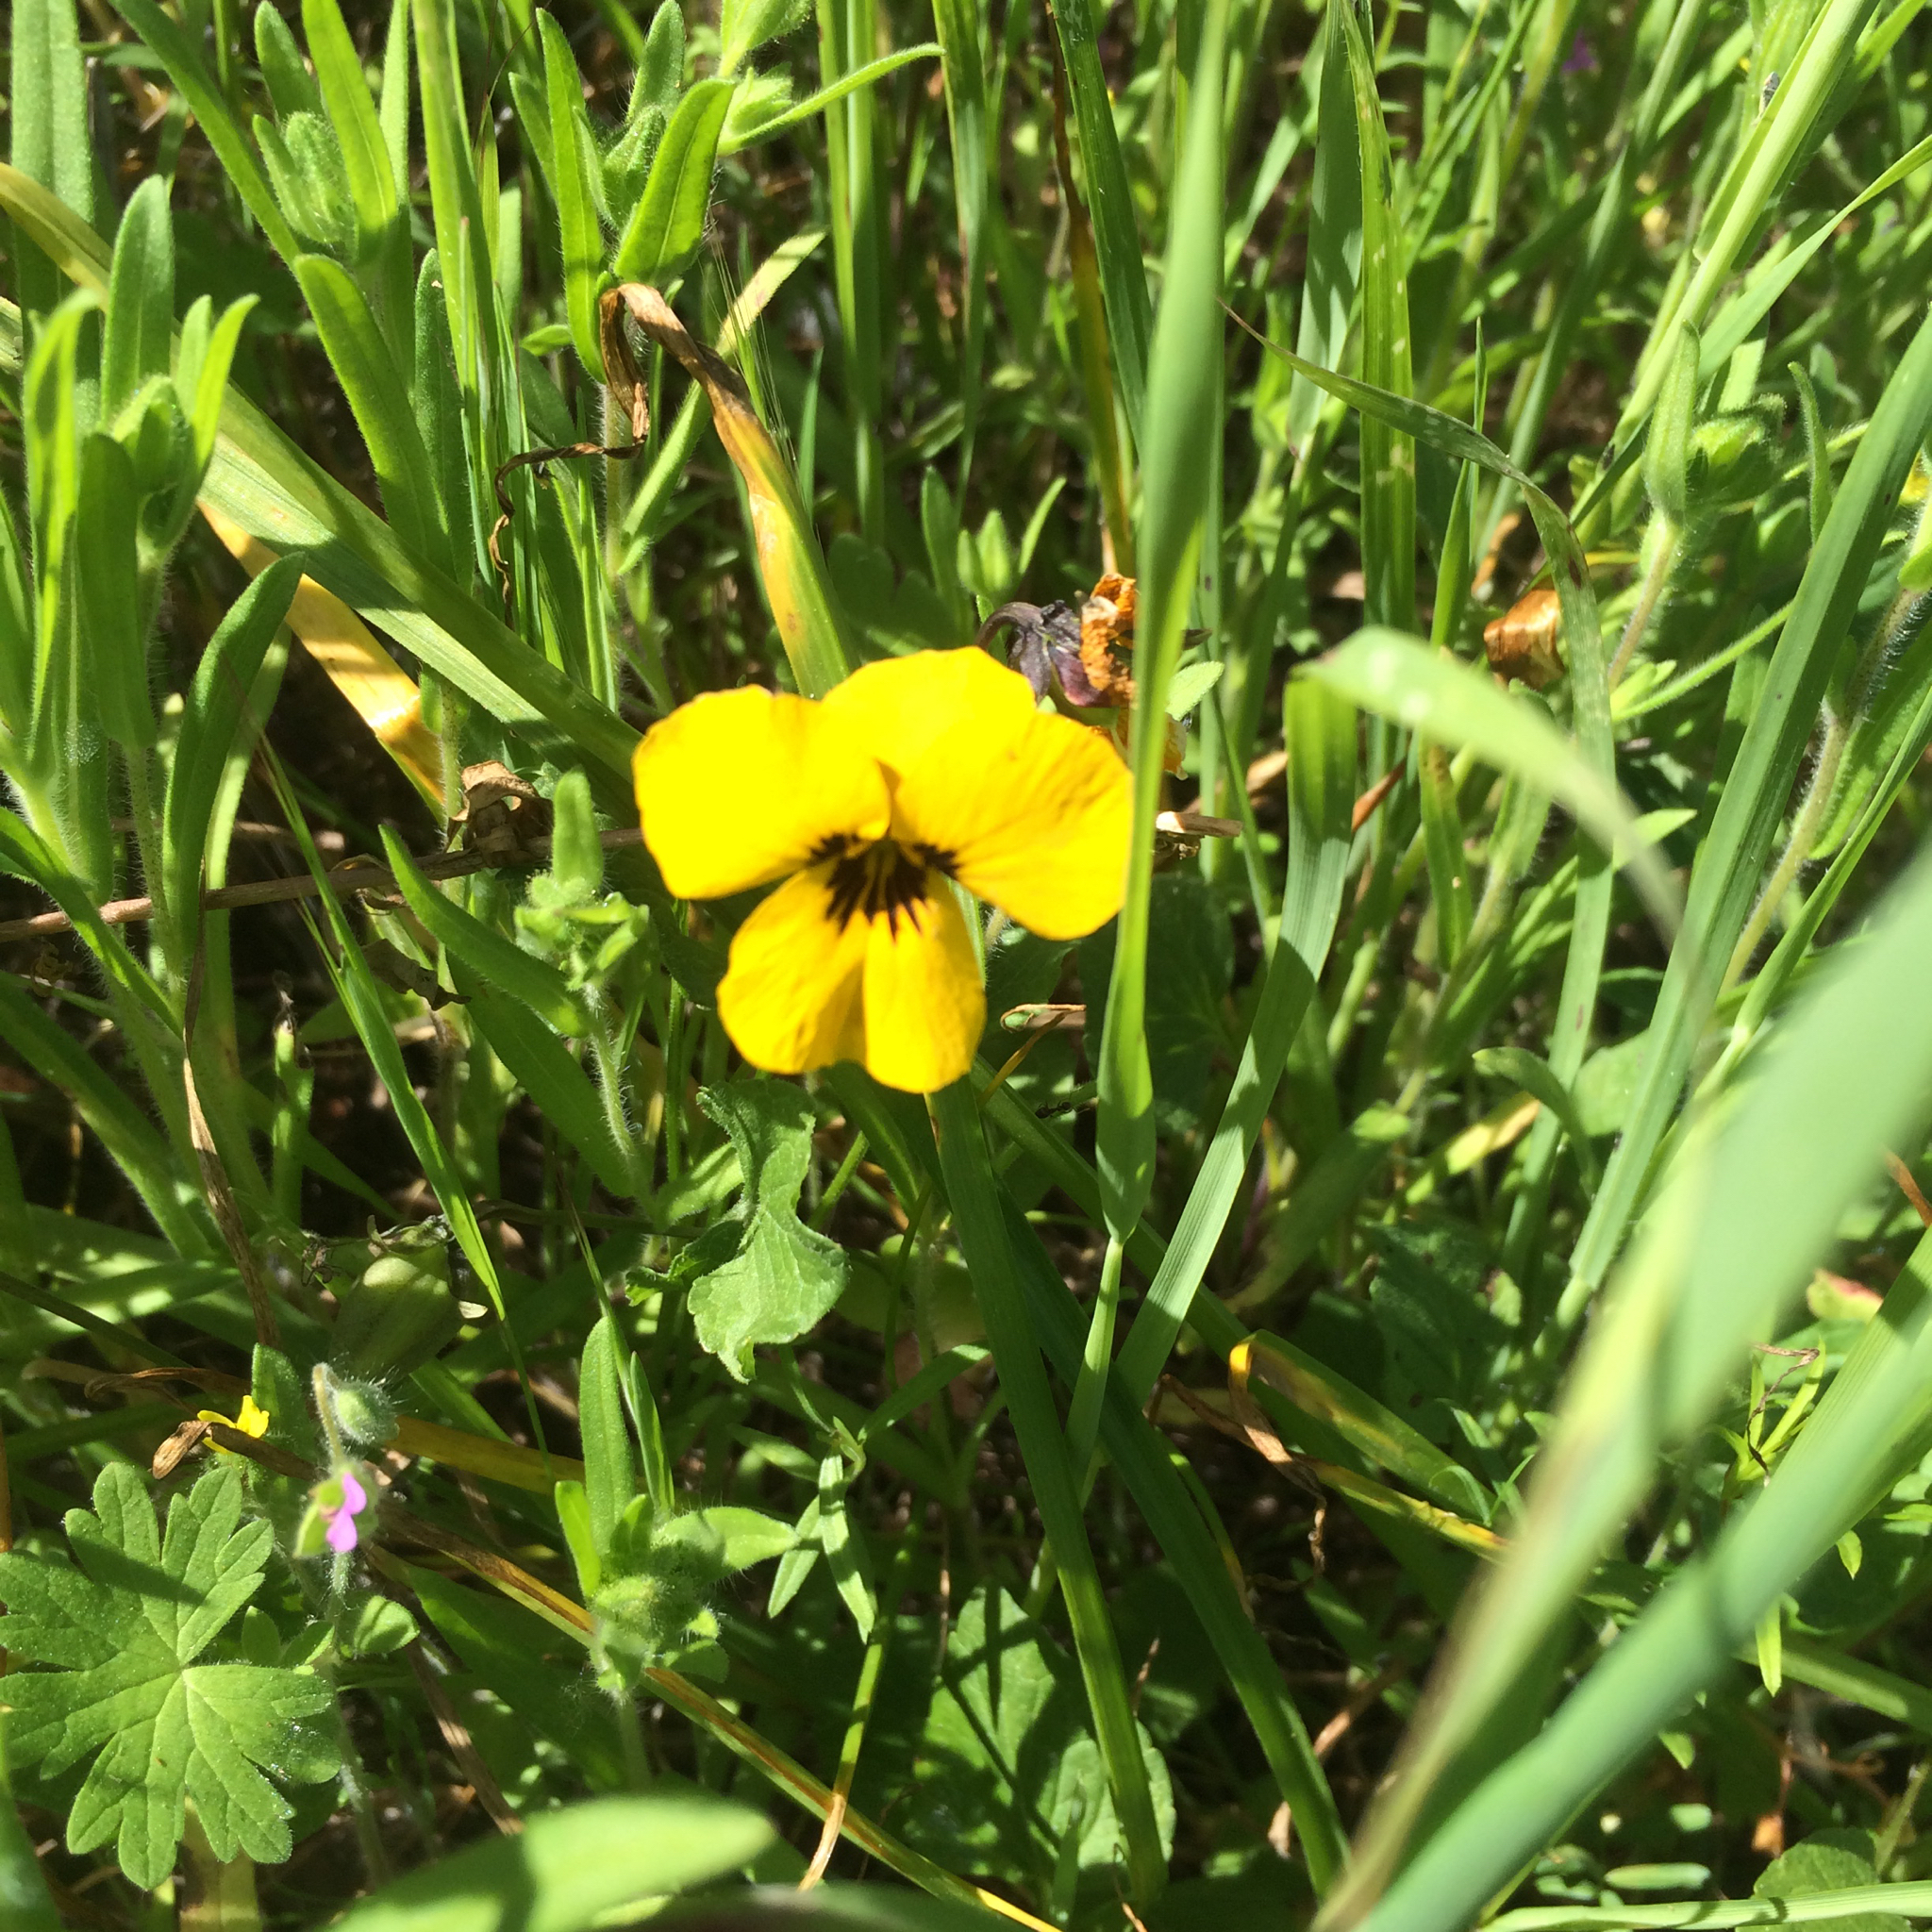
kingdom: Plantae
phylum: Tracheophyta
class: Magnoliopsida
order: Malpighiales
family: Violaceae
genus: Viola
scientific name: Viola pedunculata
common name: California golden violet
